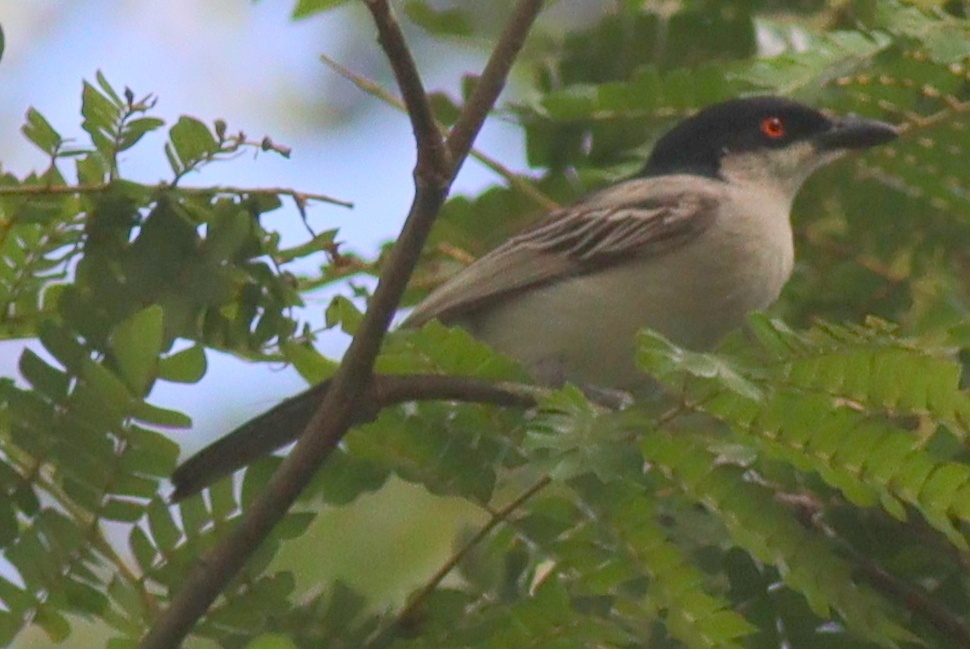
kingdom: Animalia
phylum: Chordata
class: Aves
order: Passeriformes
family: Malaconotidae
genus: Dryoscopus
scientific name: Dryoscopus gambensis
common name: Northern puffback
